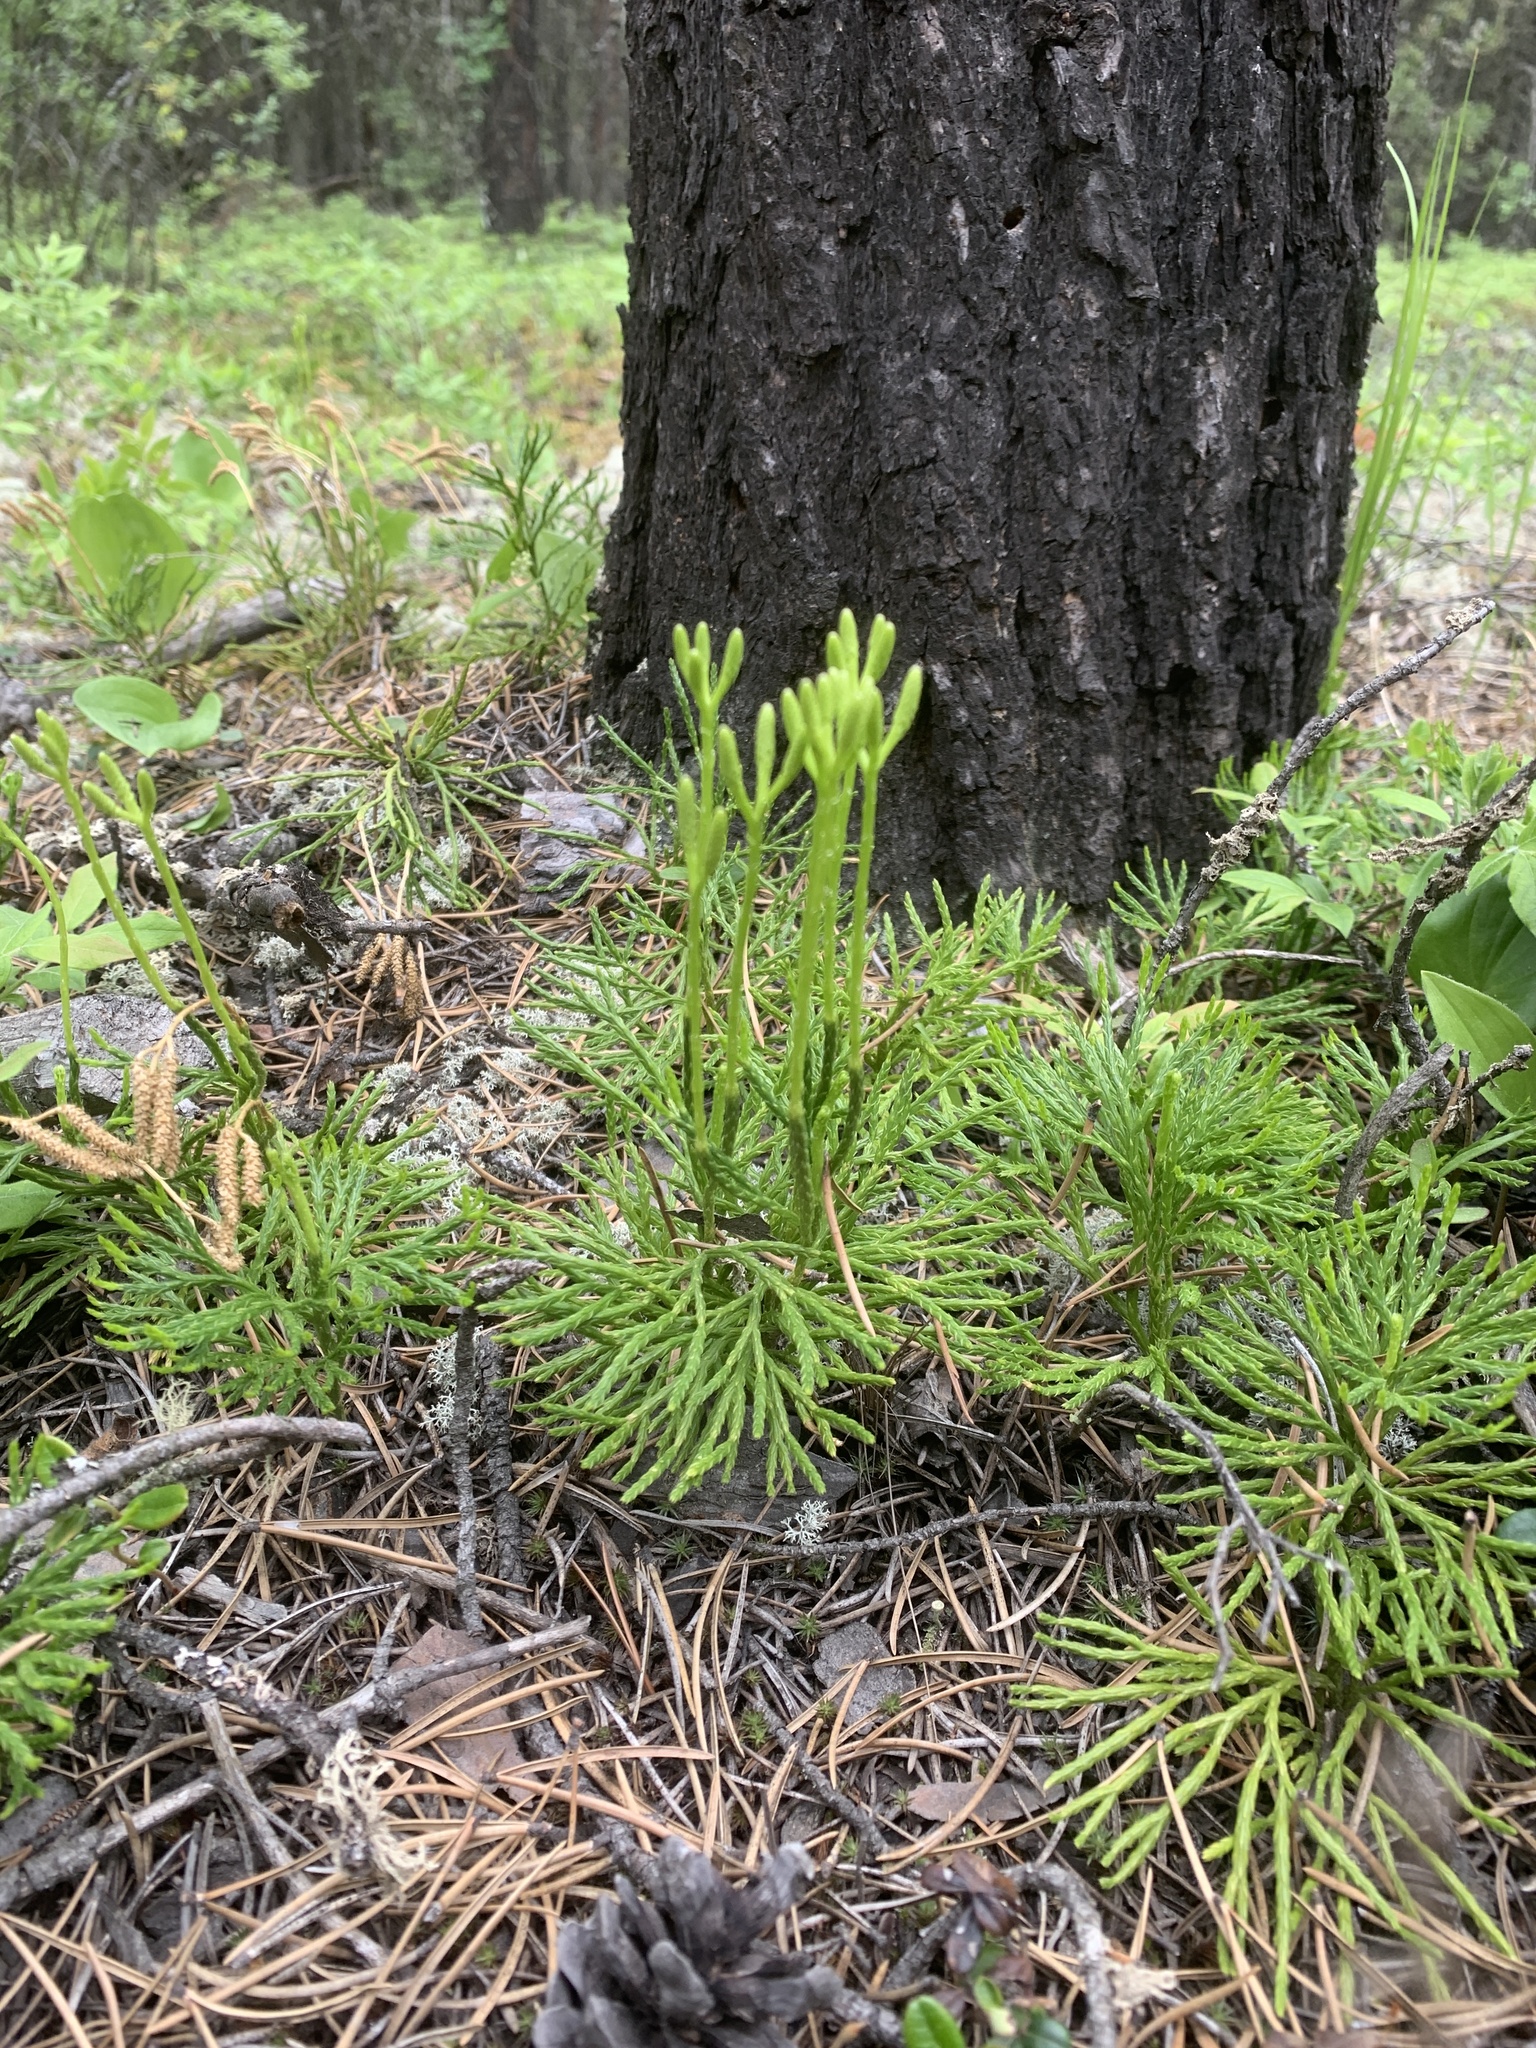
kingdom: Plantae
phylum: Tracheophyta
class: Lycopodiopsida
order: Lycopodiales
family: Lycopodiaceae
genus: Diphasiastrum
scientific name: Diphasiastrum complanatum
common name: Northern running-pine
